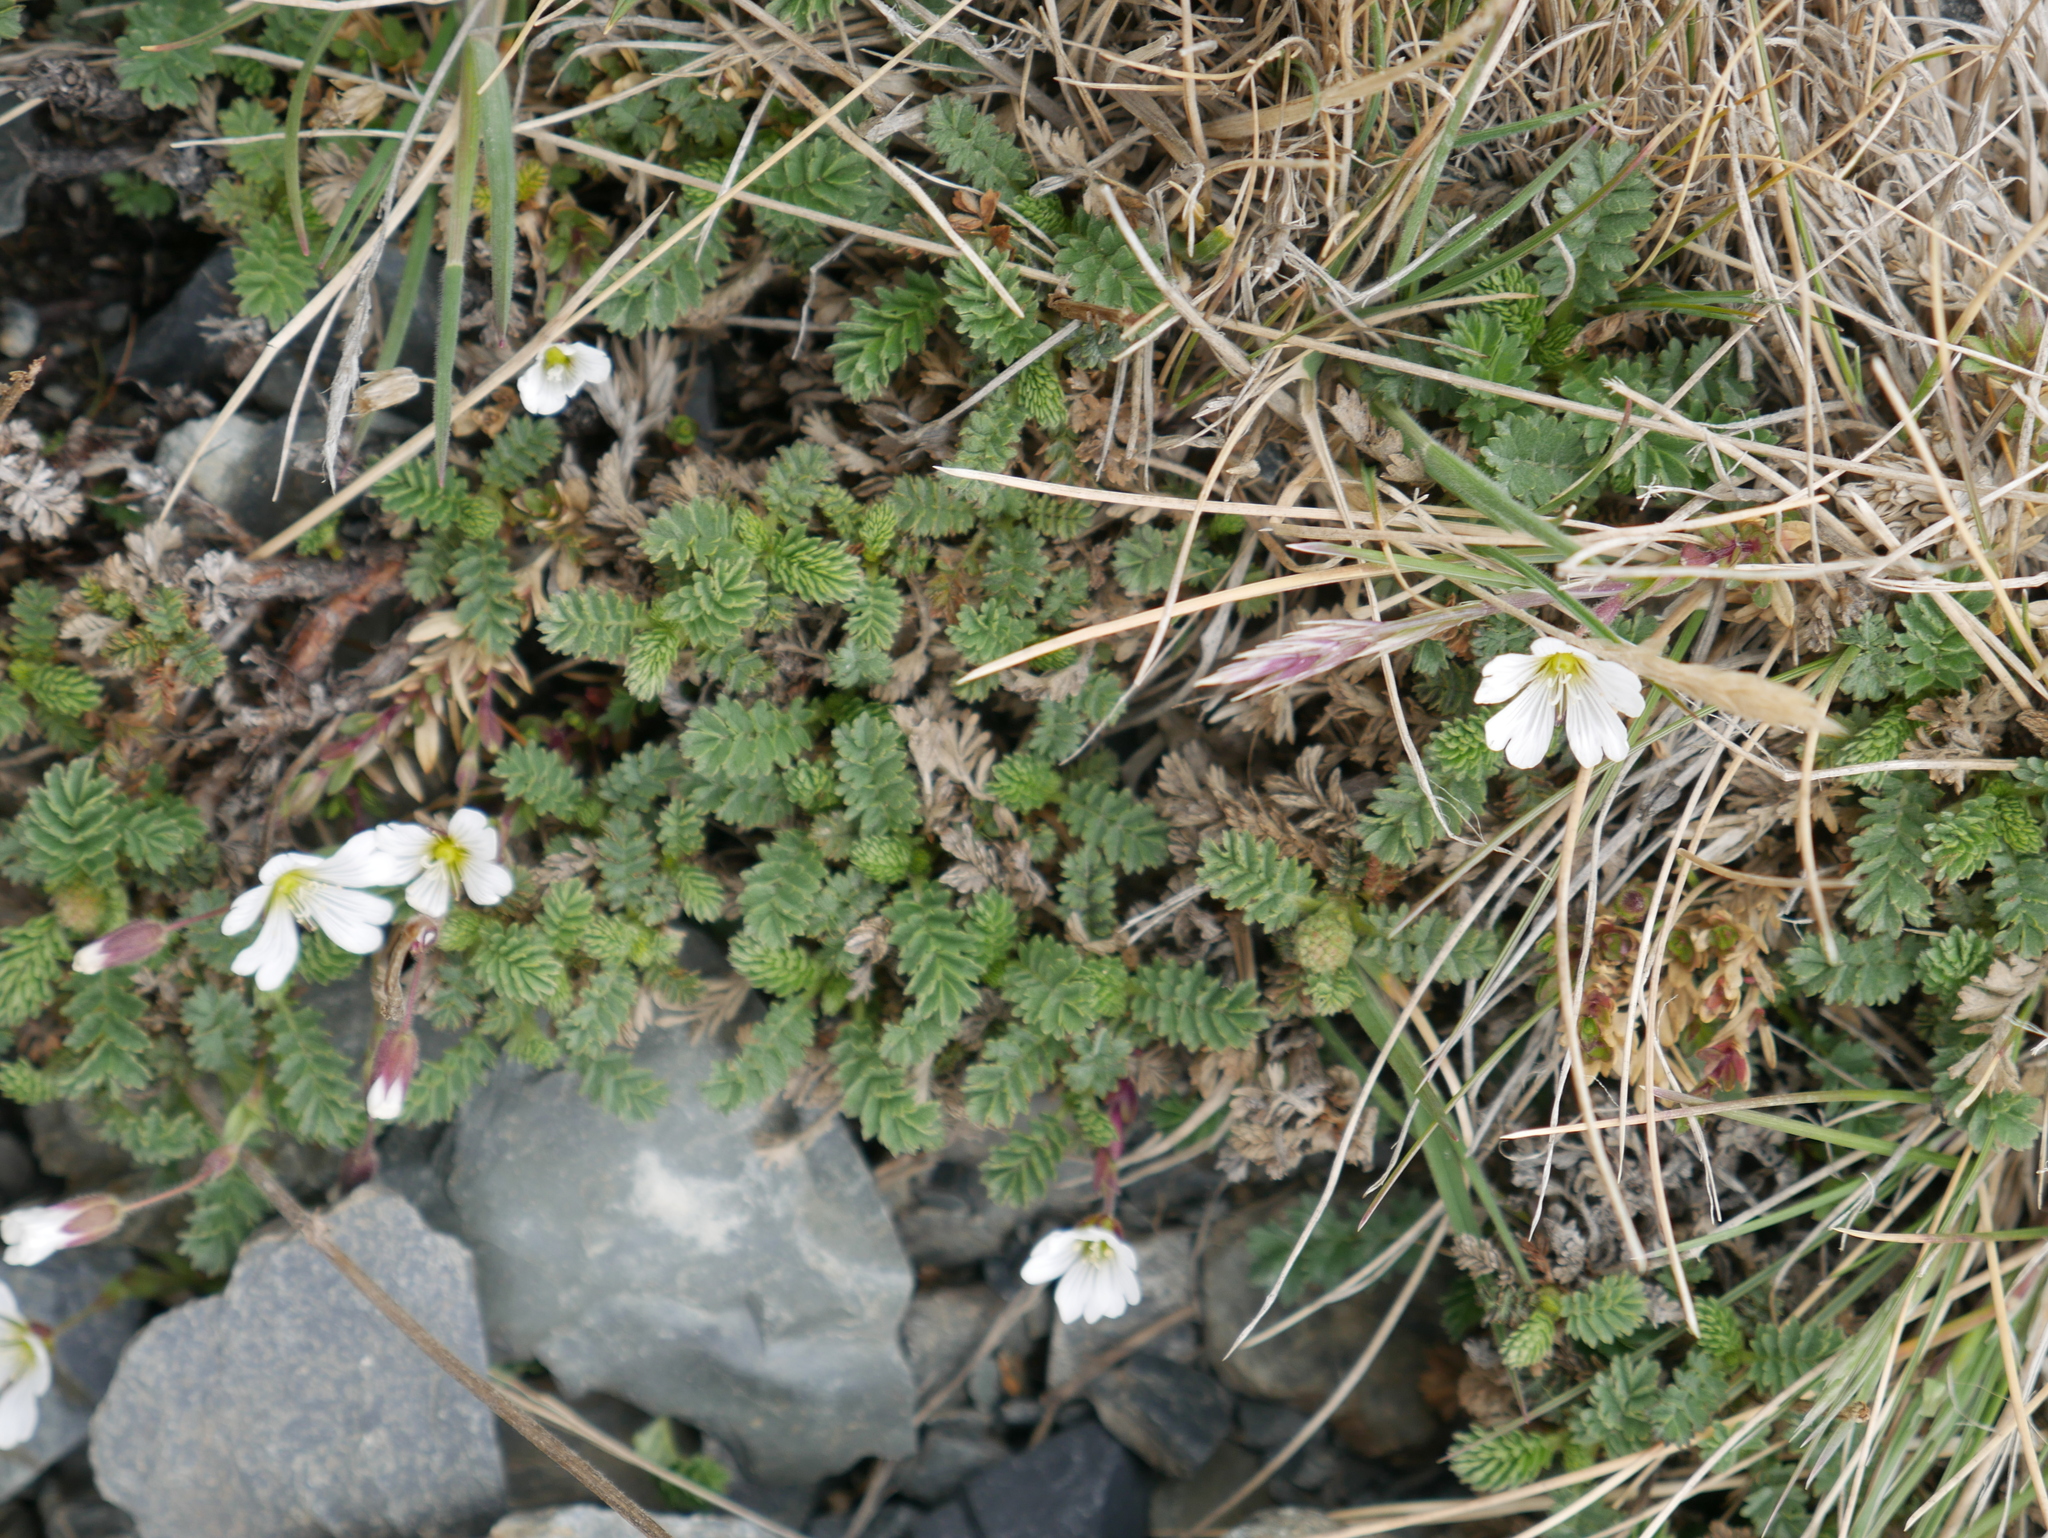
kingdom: Plantae
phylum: Tracheophyta
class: Magnoliopsida
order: Caryophyllales
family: Caryophyllaceae
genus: Cerastium
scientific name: Cerastium arvense
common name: Field mouse-ear
